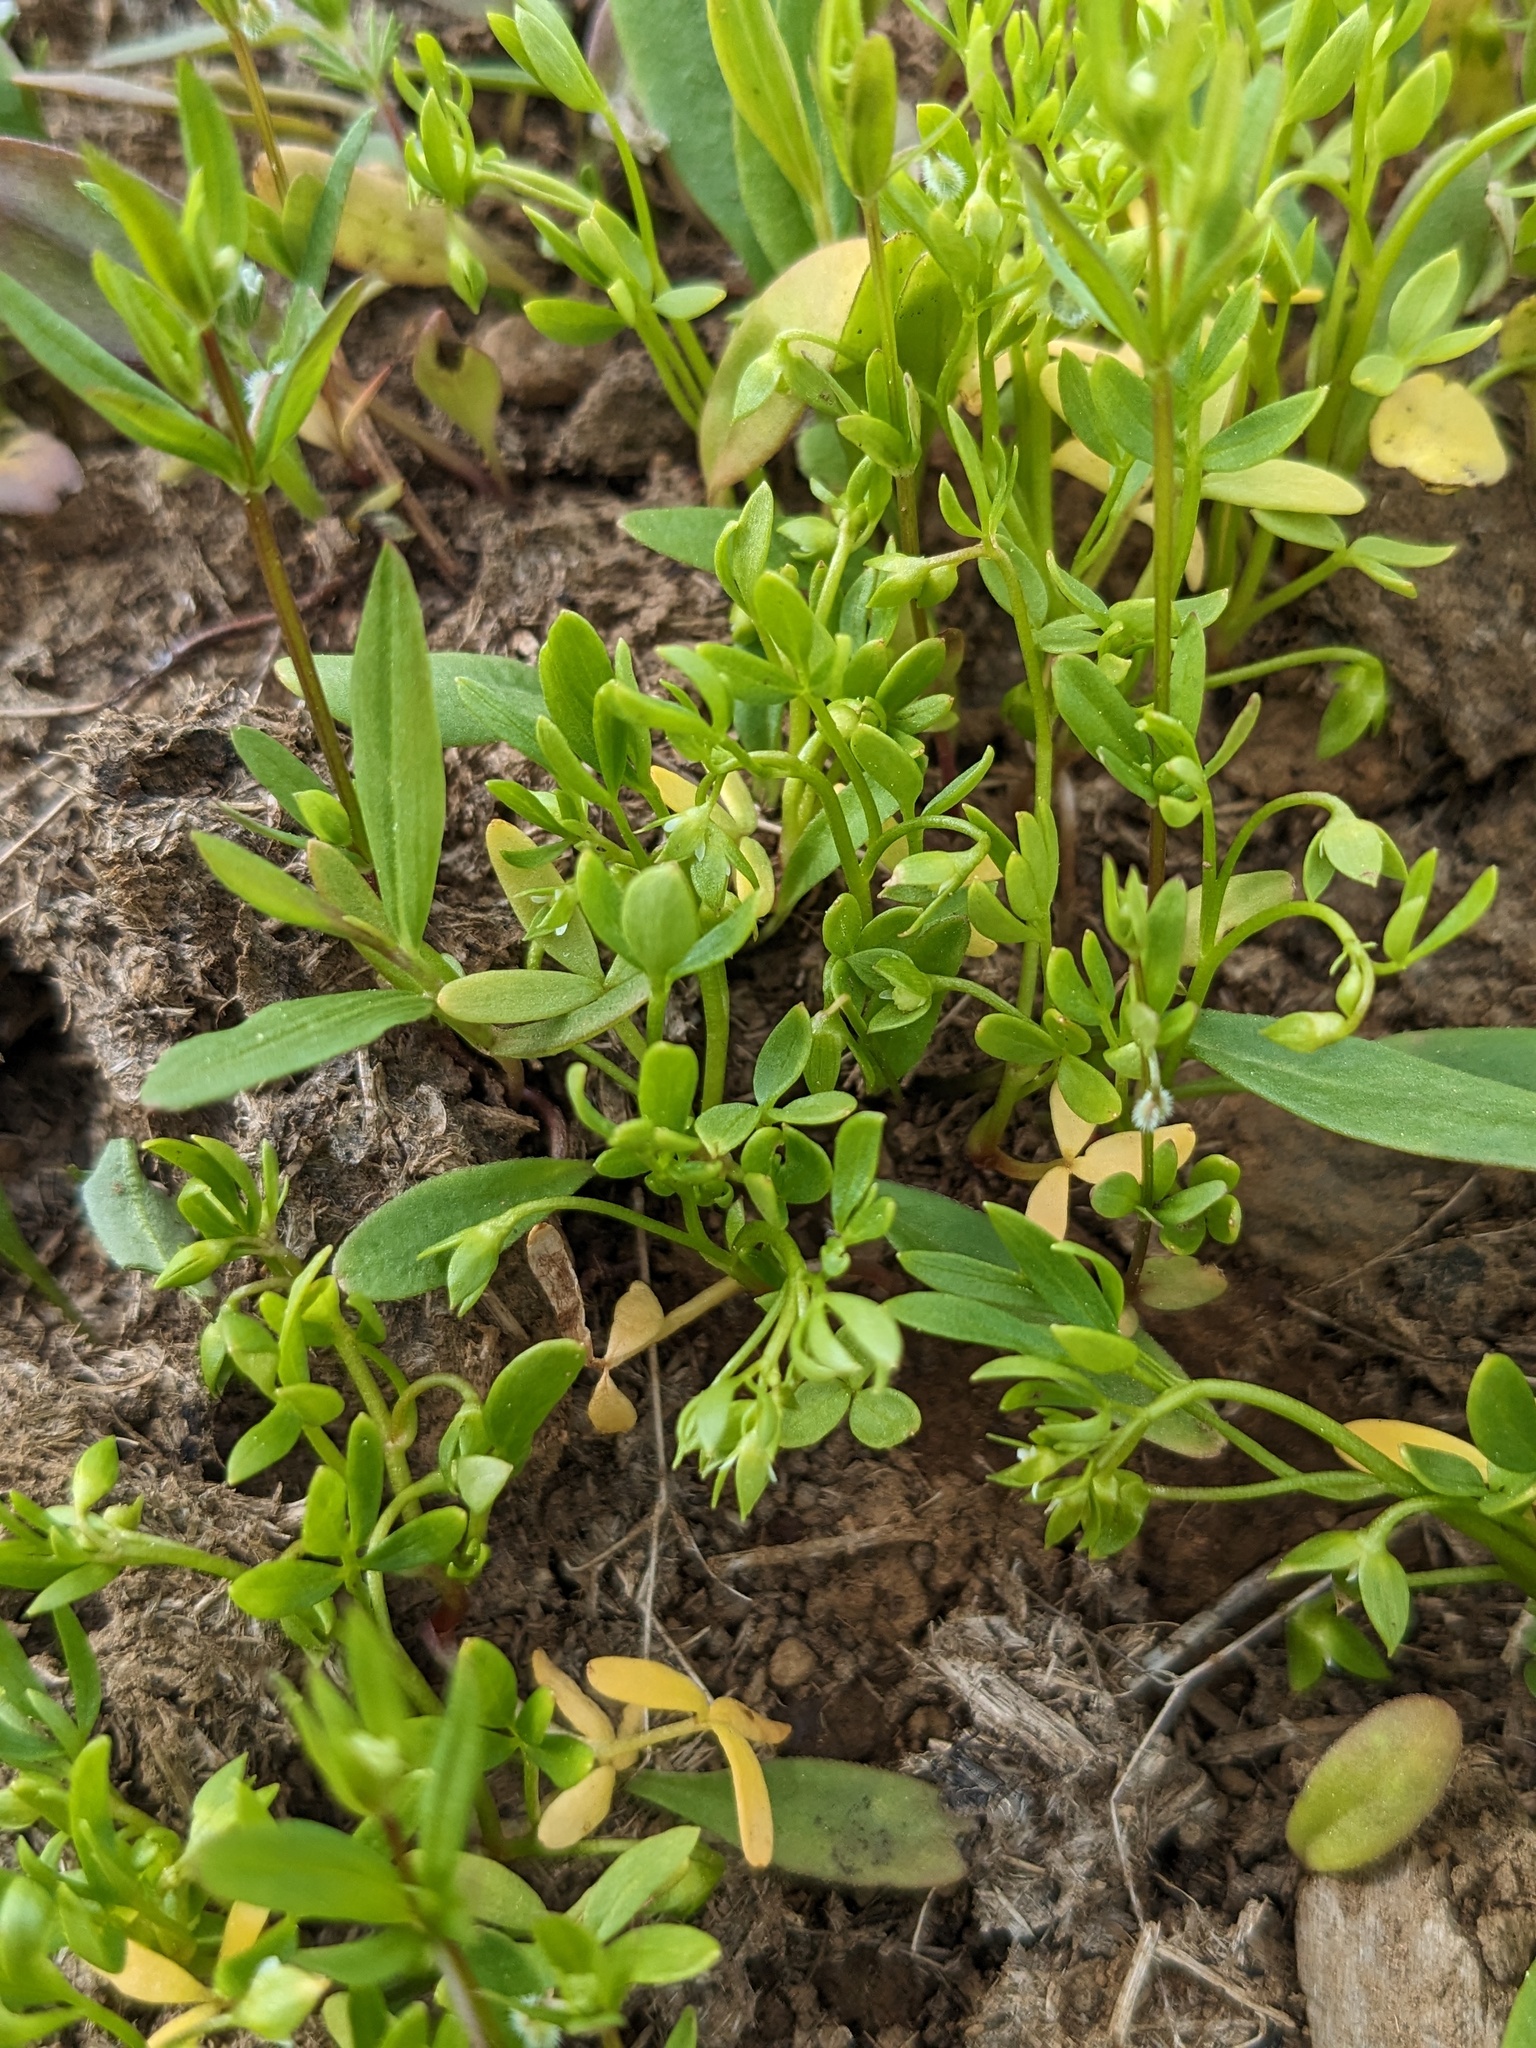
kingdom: Plantae
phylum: Tracheophyta
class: Magnoliopsida
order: Brassicales
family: Limnanthaceae
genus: Floerkea
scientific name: Floerkea proserpinacoides
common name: False mermaid
